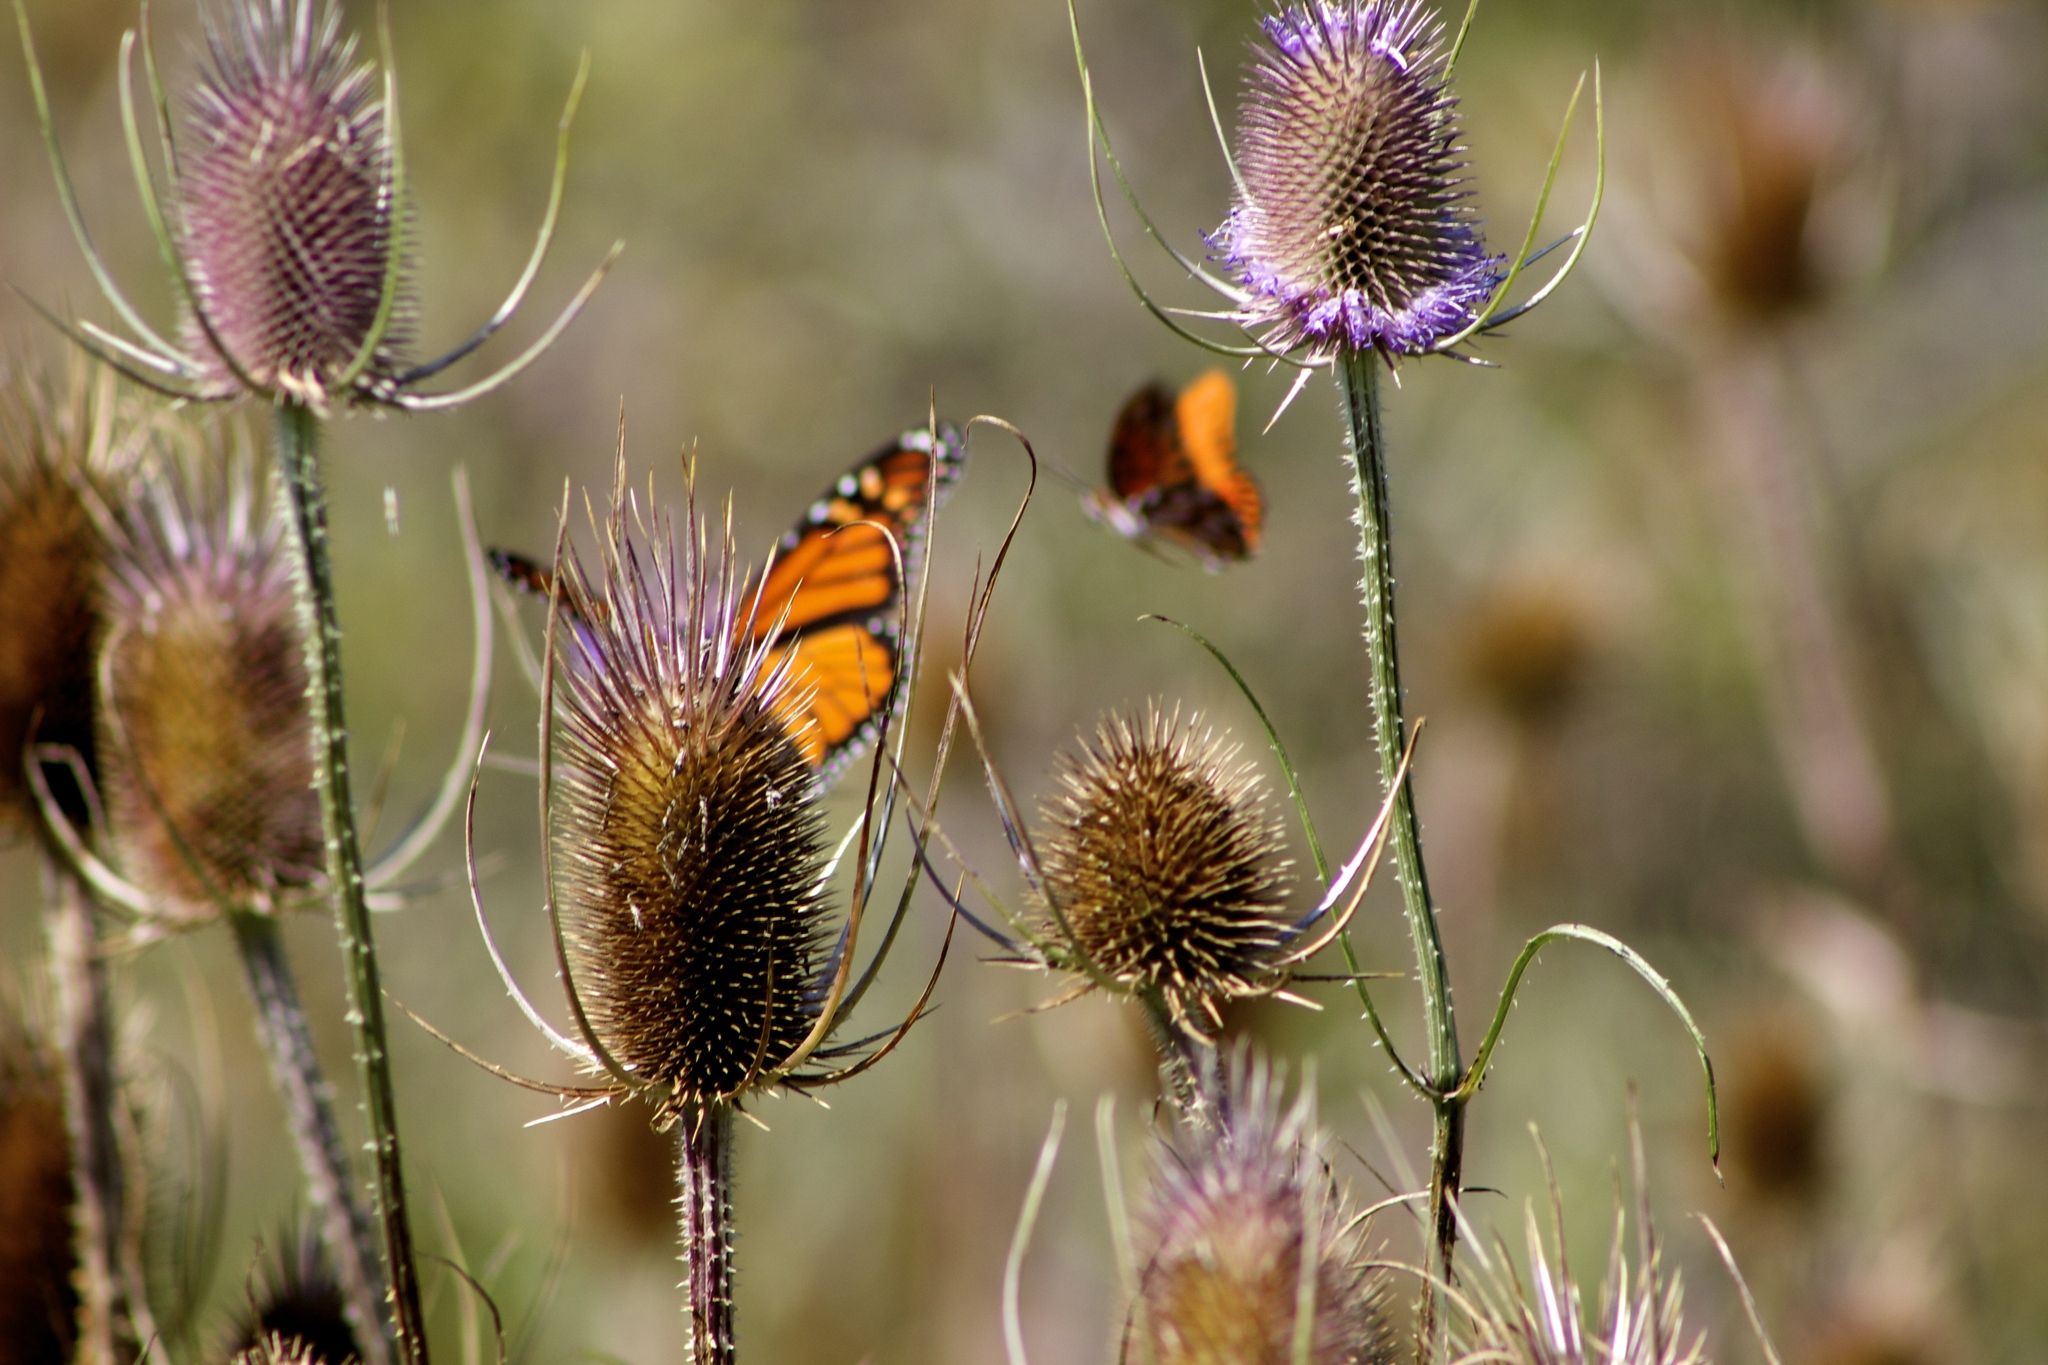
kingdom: Animalia
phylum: Arthropoda
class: Insecta
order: Lepidoptera
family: Nymphalidae
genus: Dione
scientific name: Dione vanillae
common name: Gulf fritillary
